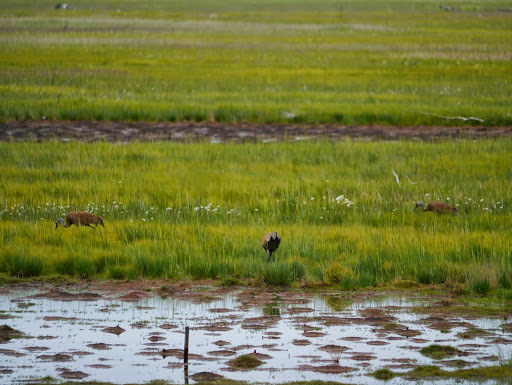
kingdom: Animalia
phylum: Chordata
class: Aves
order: Gruiformes
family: Gruidae
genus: Grus
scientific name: Grus canadensis
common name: Sandhill crane
